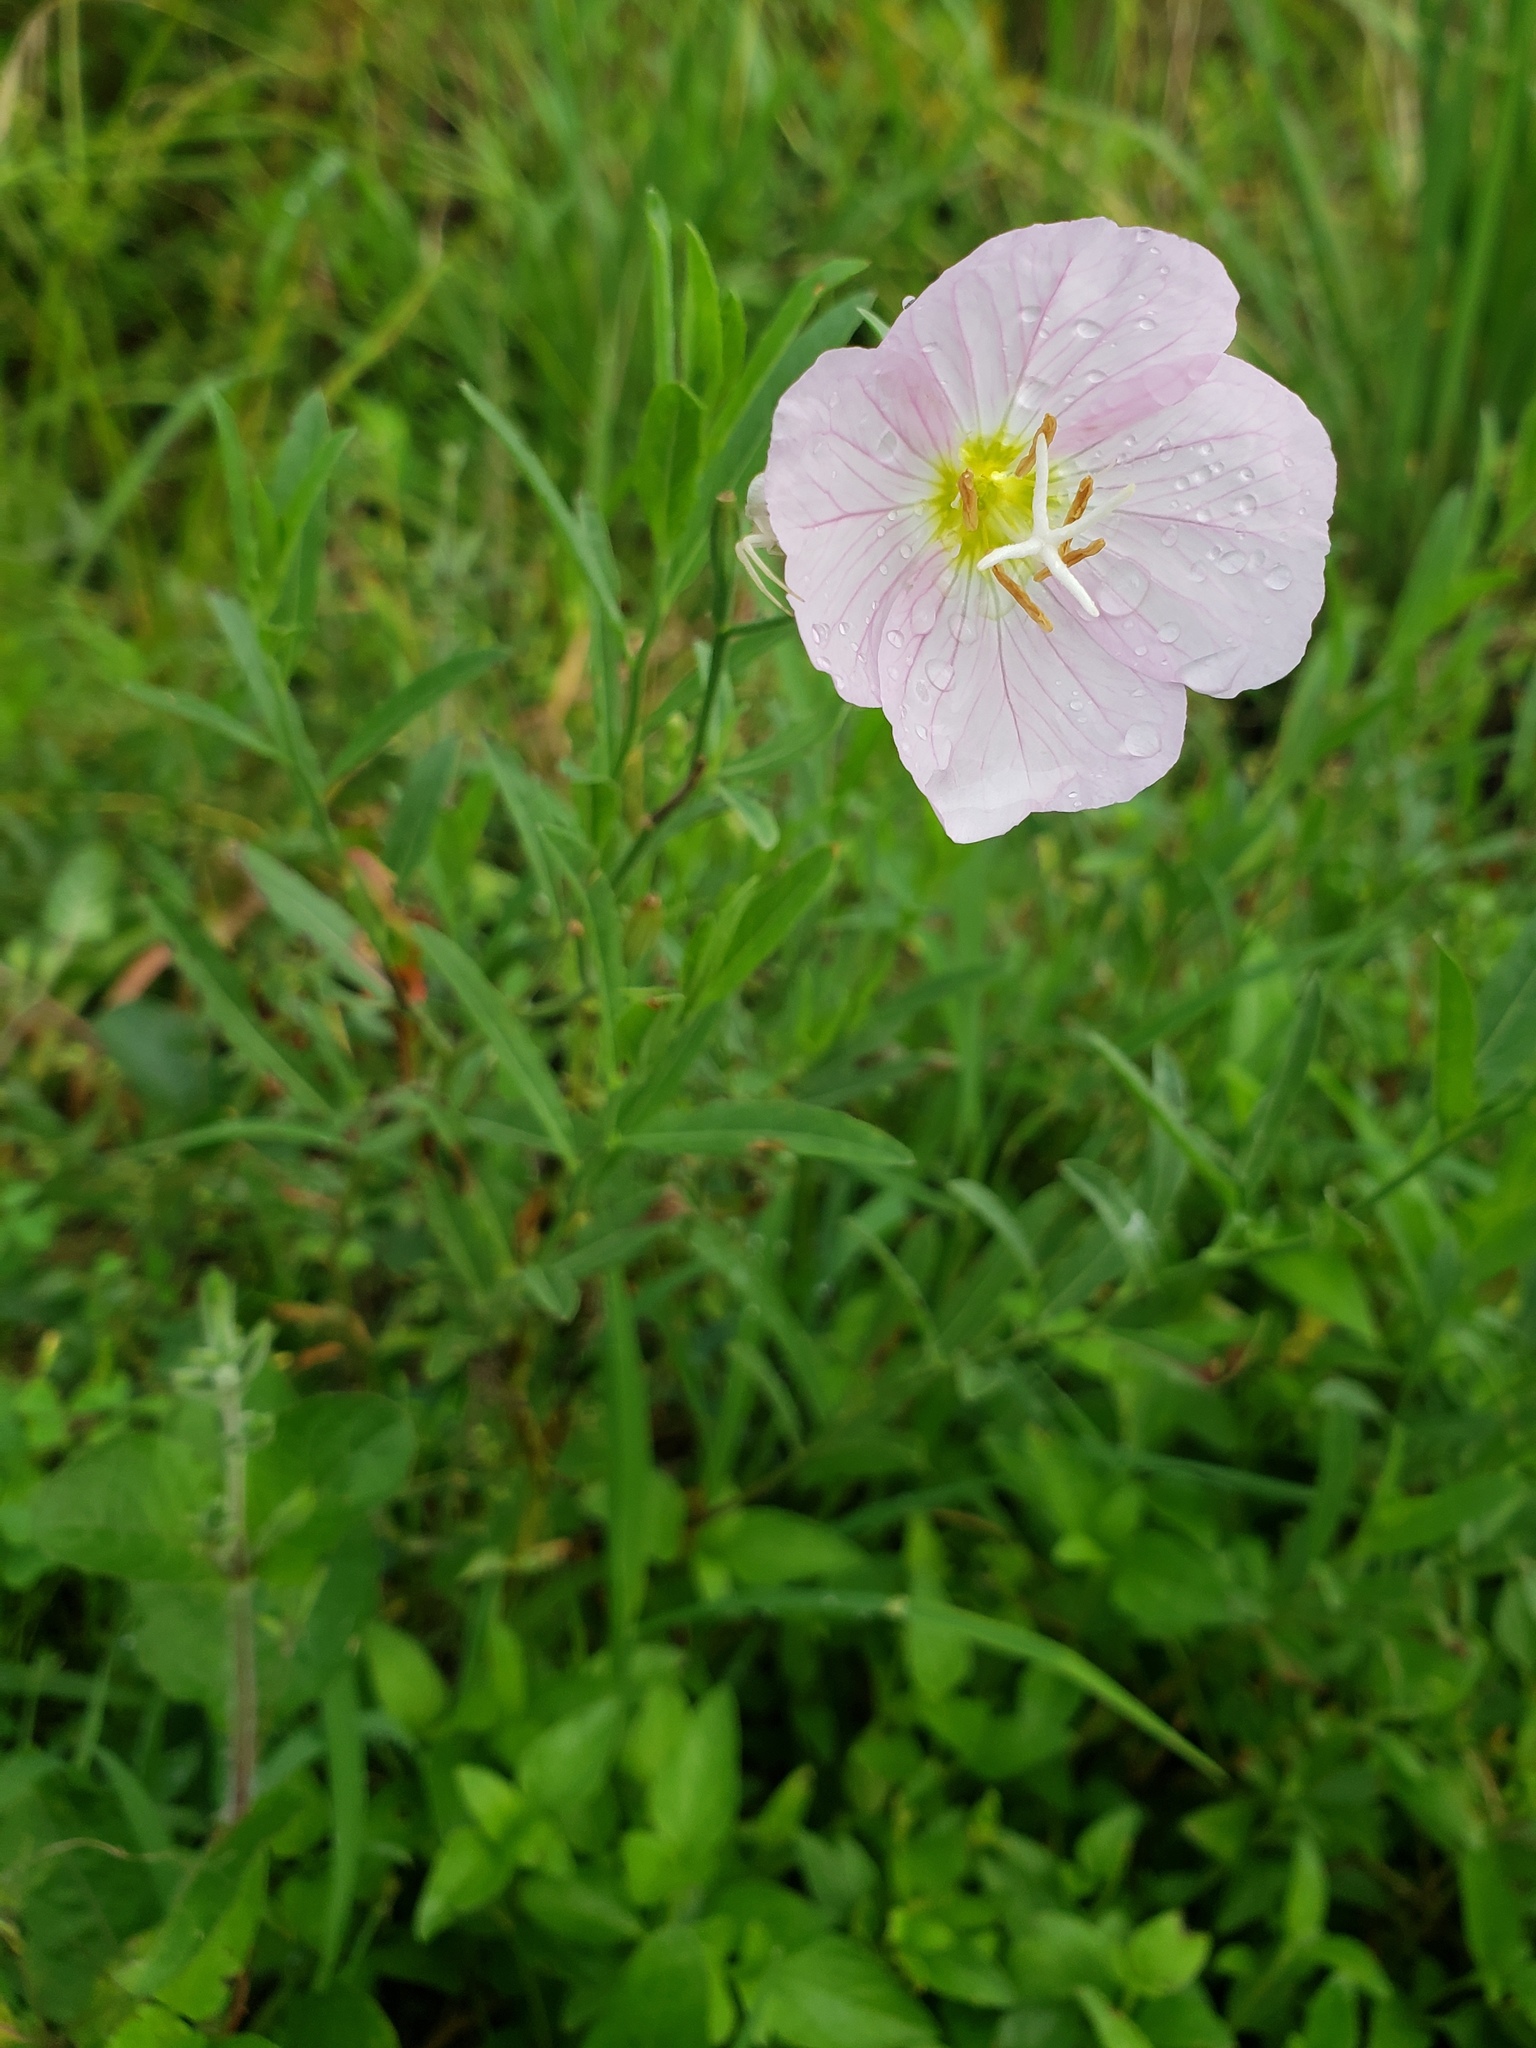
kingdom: Plantae
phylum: Tracheophyta
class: Magnoliopsida
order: Myrtales
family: Onagraceae
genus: Oenothera
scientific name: Oenothera speciosa
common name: White evening-primrose
